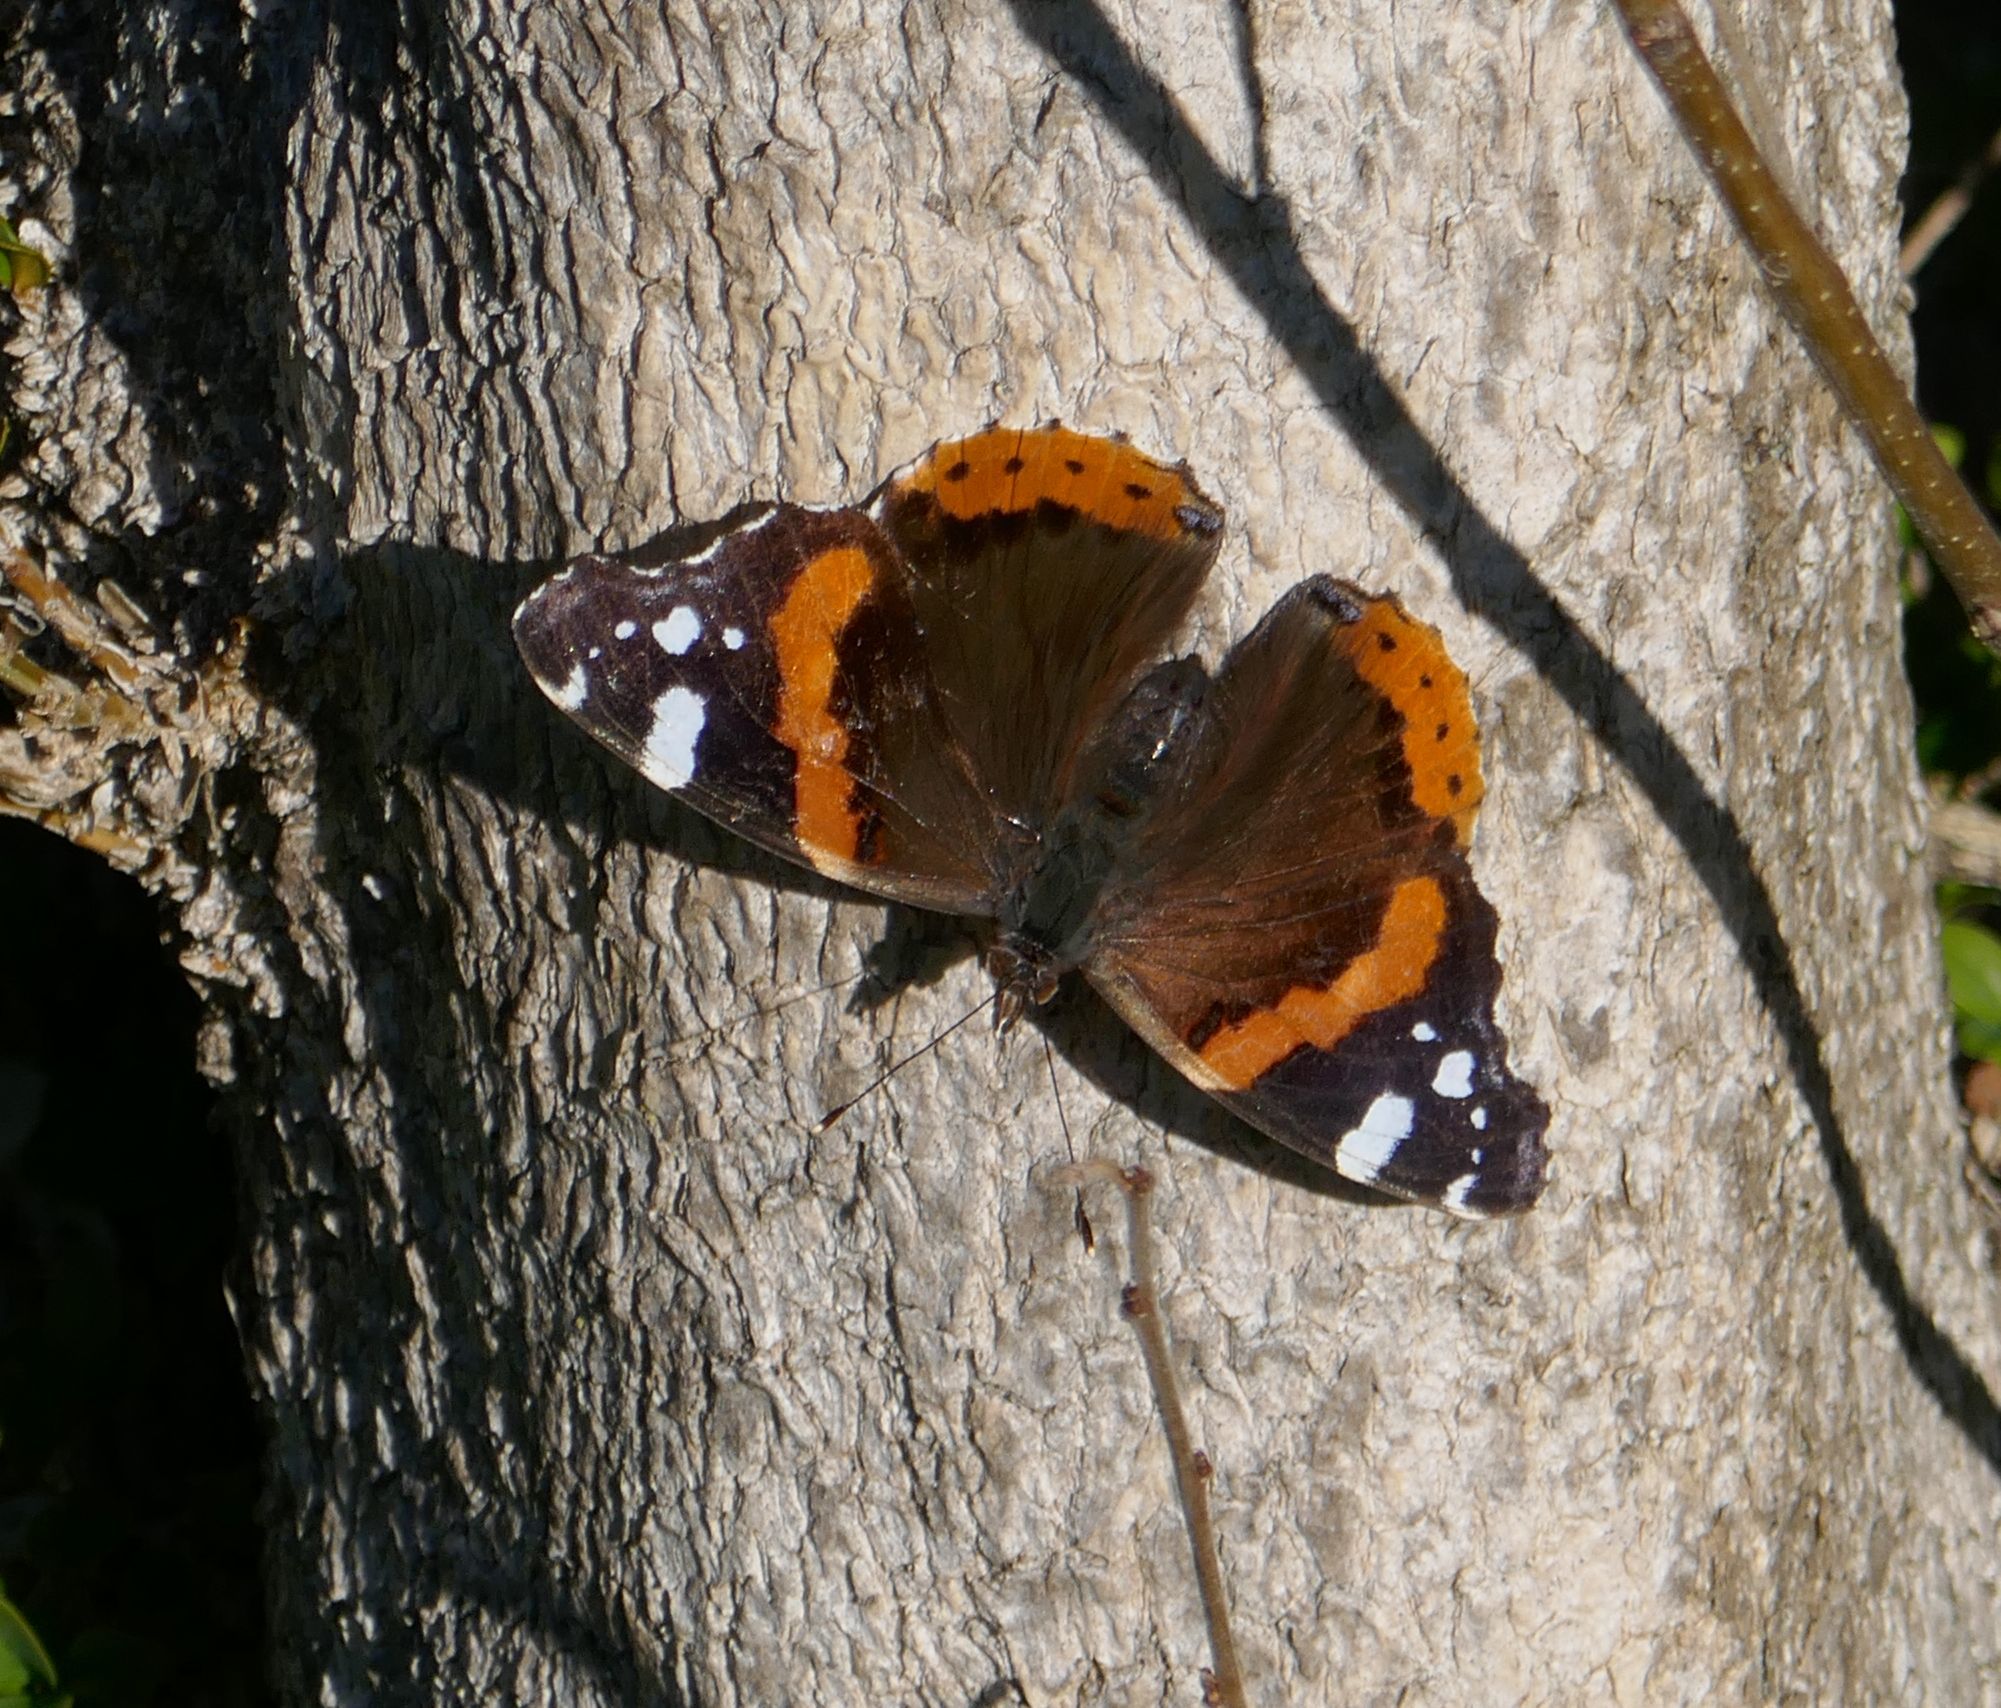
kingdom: Animalia
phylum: Arthropoda
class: Insecta
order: Lepidoptera
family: Nymphalidae
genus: Vanessa
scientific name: Vanessa atalanta
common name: Red admiral
